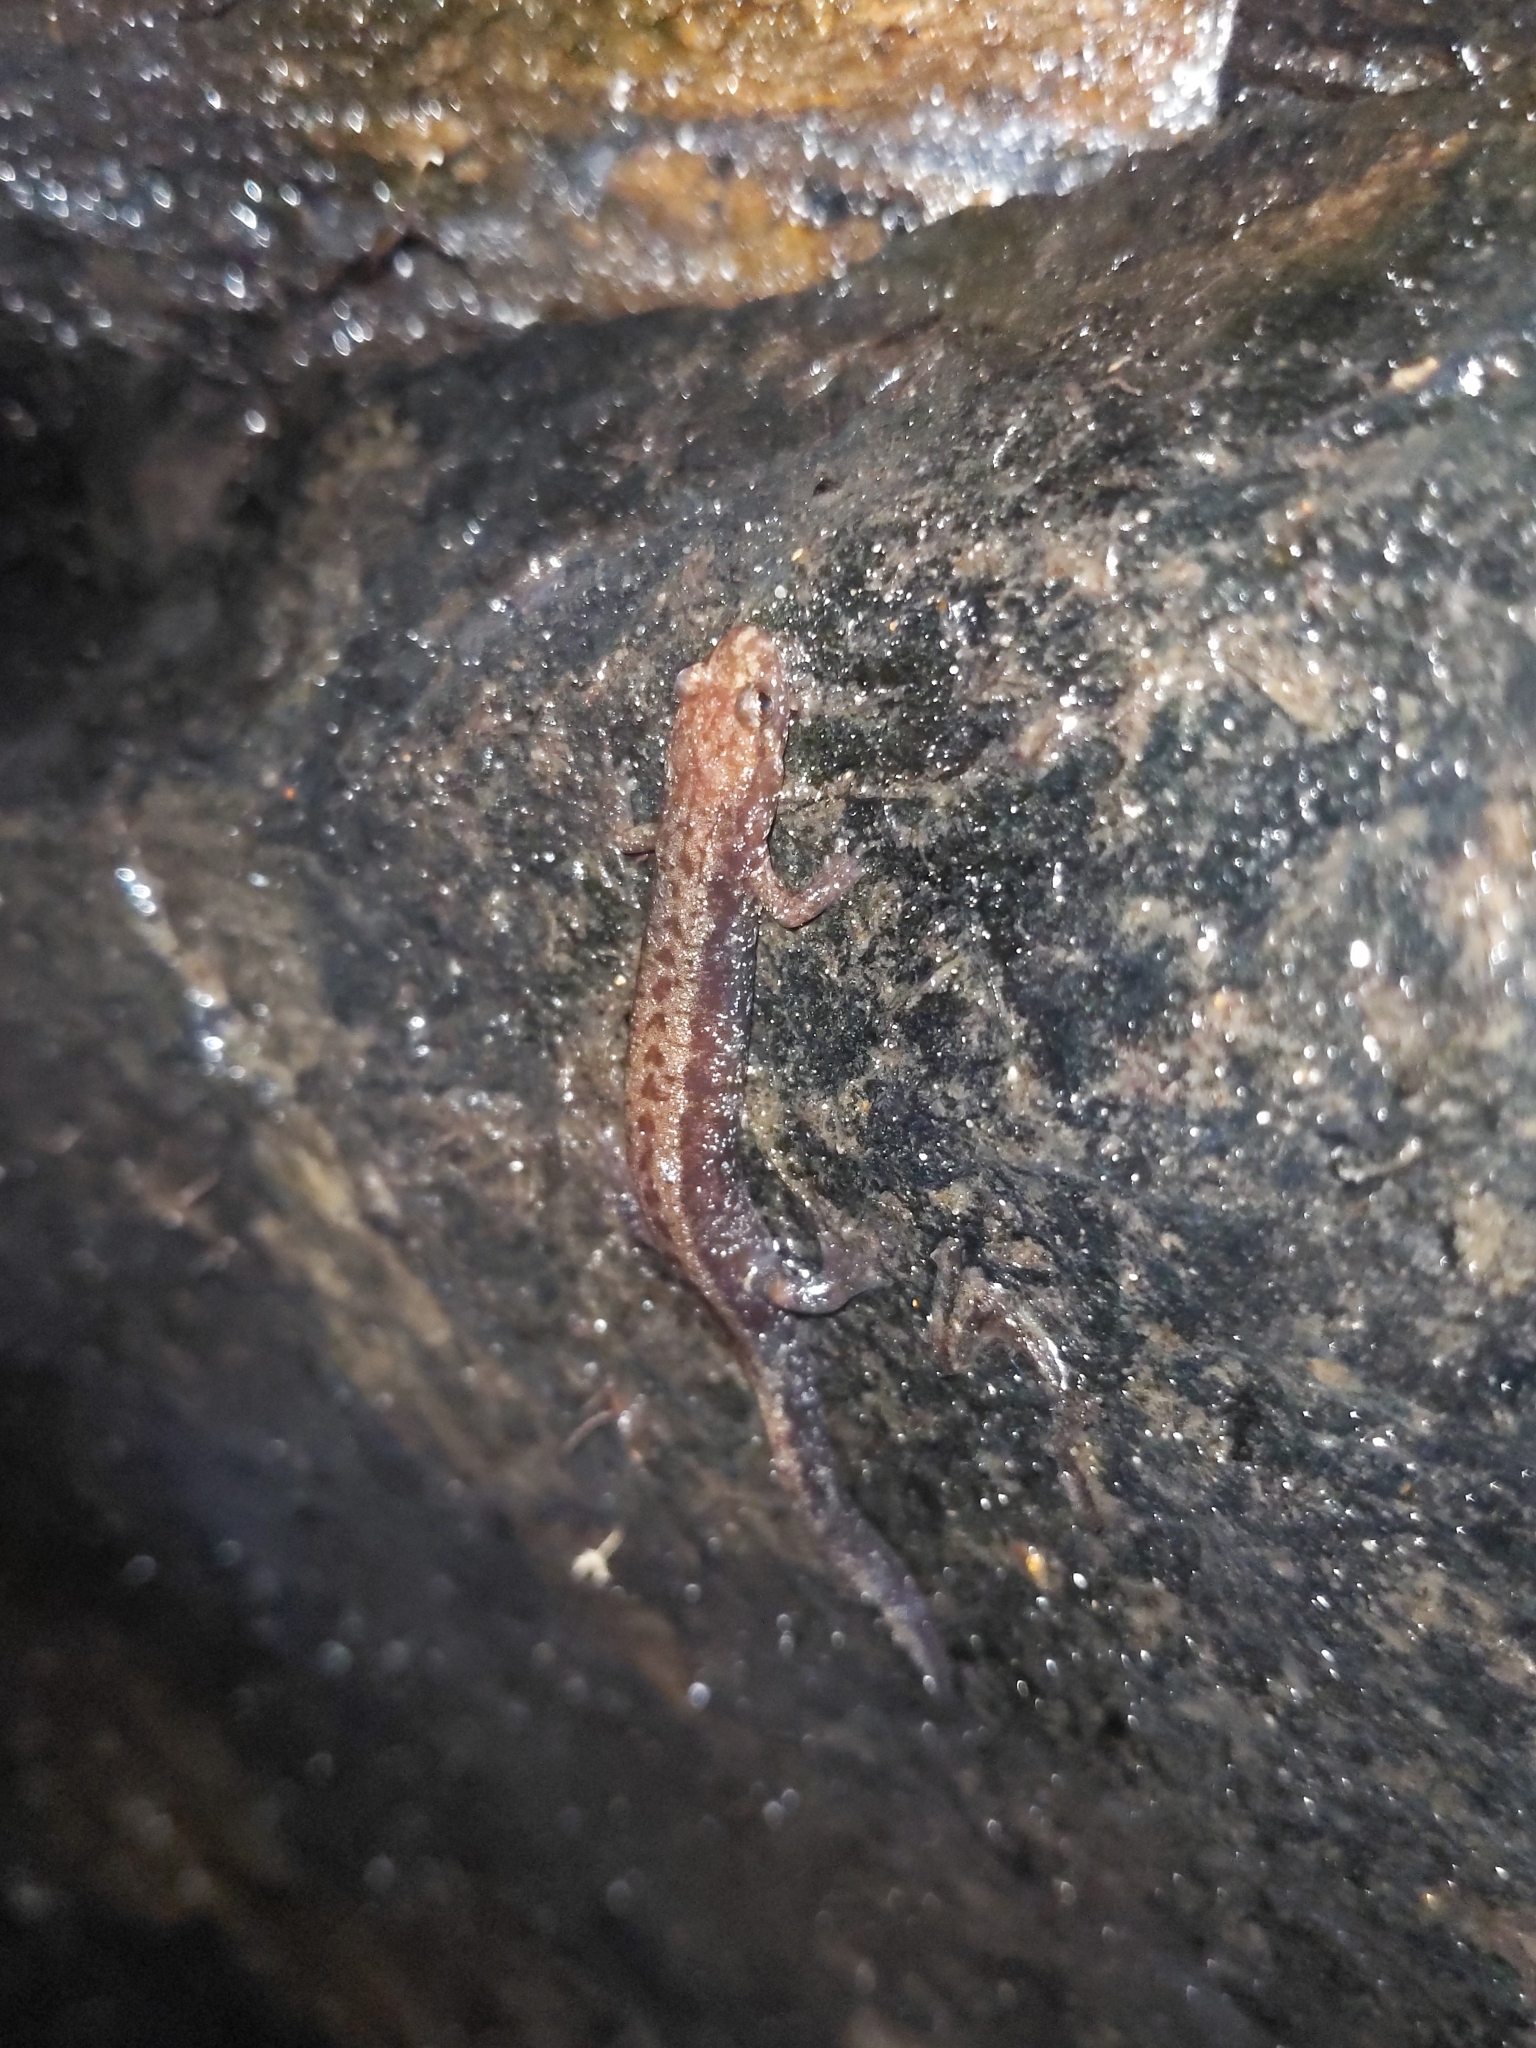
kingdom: Animalia
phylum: Chordata
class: Amphibia
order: Caudata
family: Plethodontidae
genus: Desmognathus
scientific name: Desmognathus ochrophaeus
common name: Allegheny mountain dusky salamander
